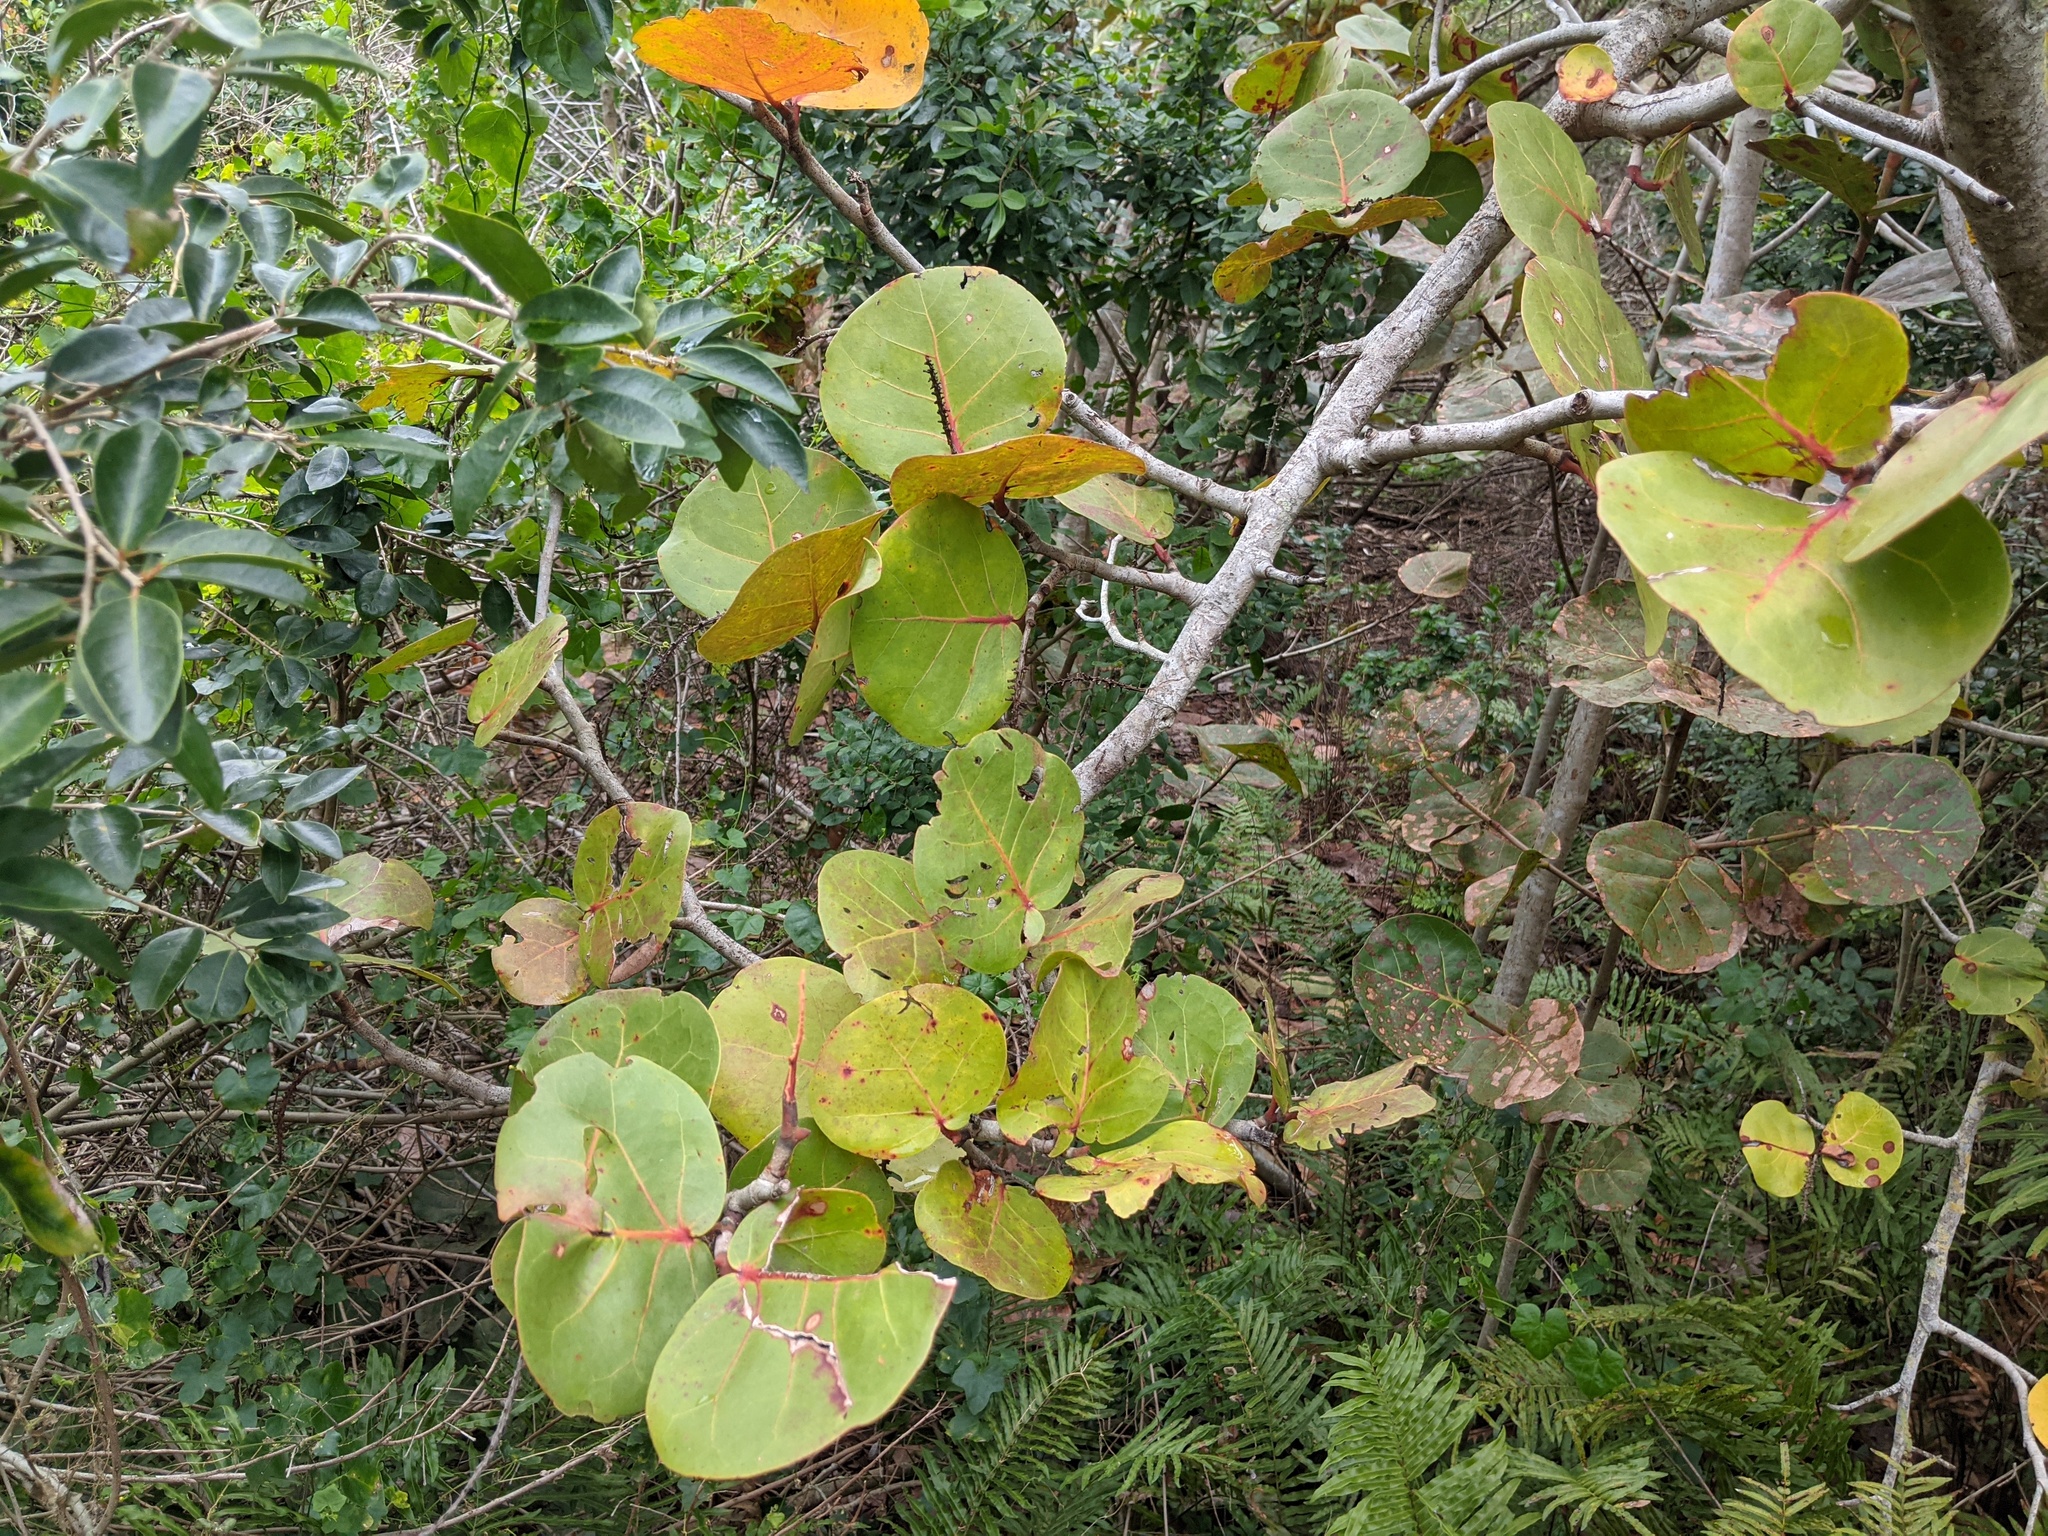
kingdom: Plantae
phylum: Tracheophyta
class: Magnoliopsida
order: Caryophyllales
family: Polygonaceae
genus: Coccoloba
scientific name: Coccoloba uvifera
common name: Seagrape
